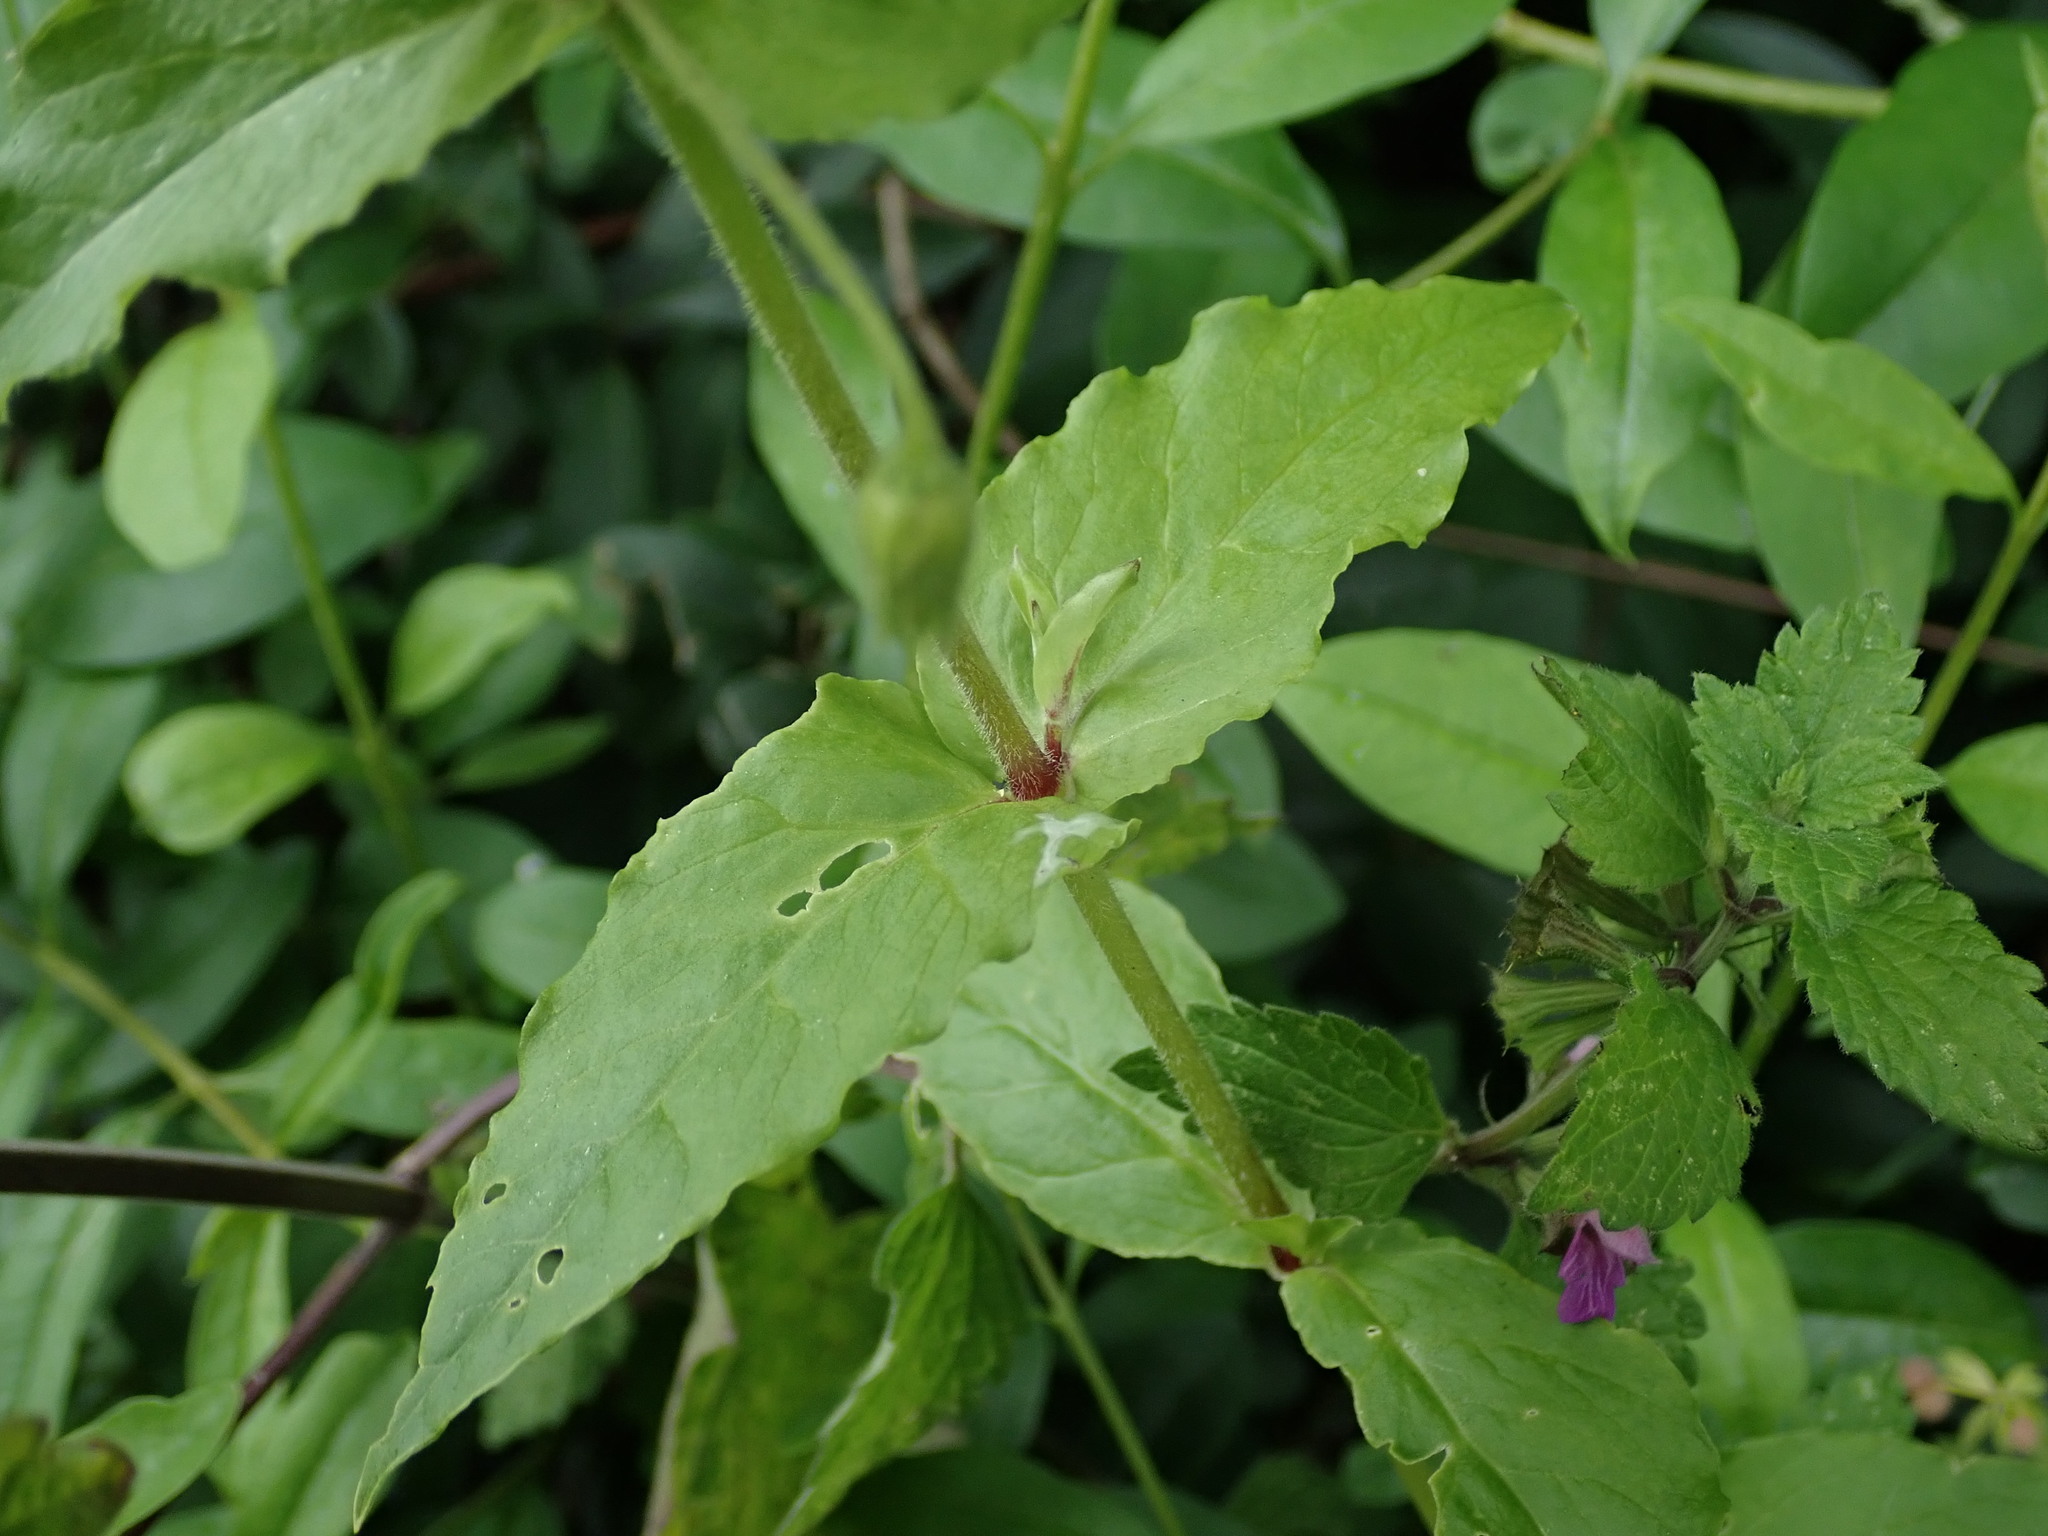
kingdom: Plantae
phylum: Tracheophyta
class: Magnoliopsida
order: Caryophyllales
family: Caryophyllaceae
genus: Stellaria
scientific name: Stellaria aquatica
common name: Water chickweed
